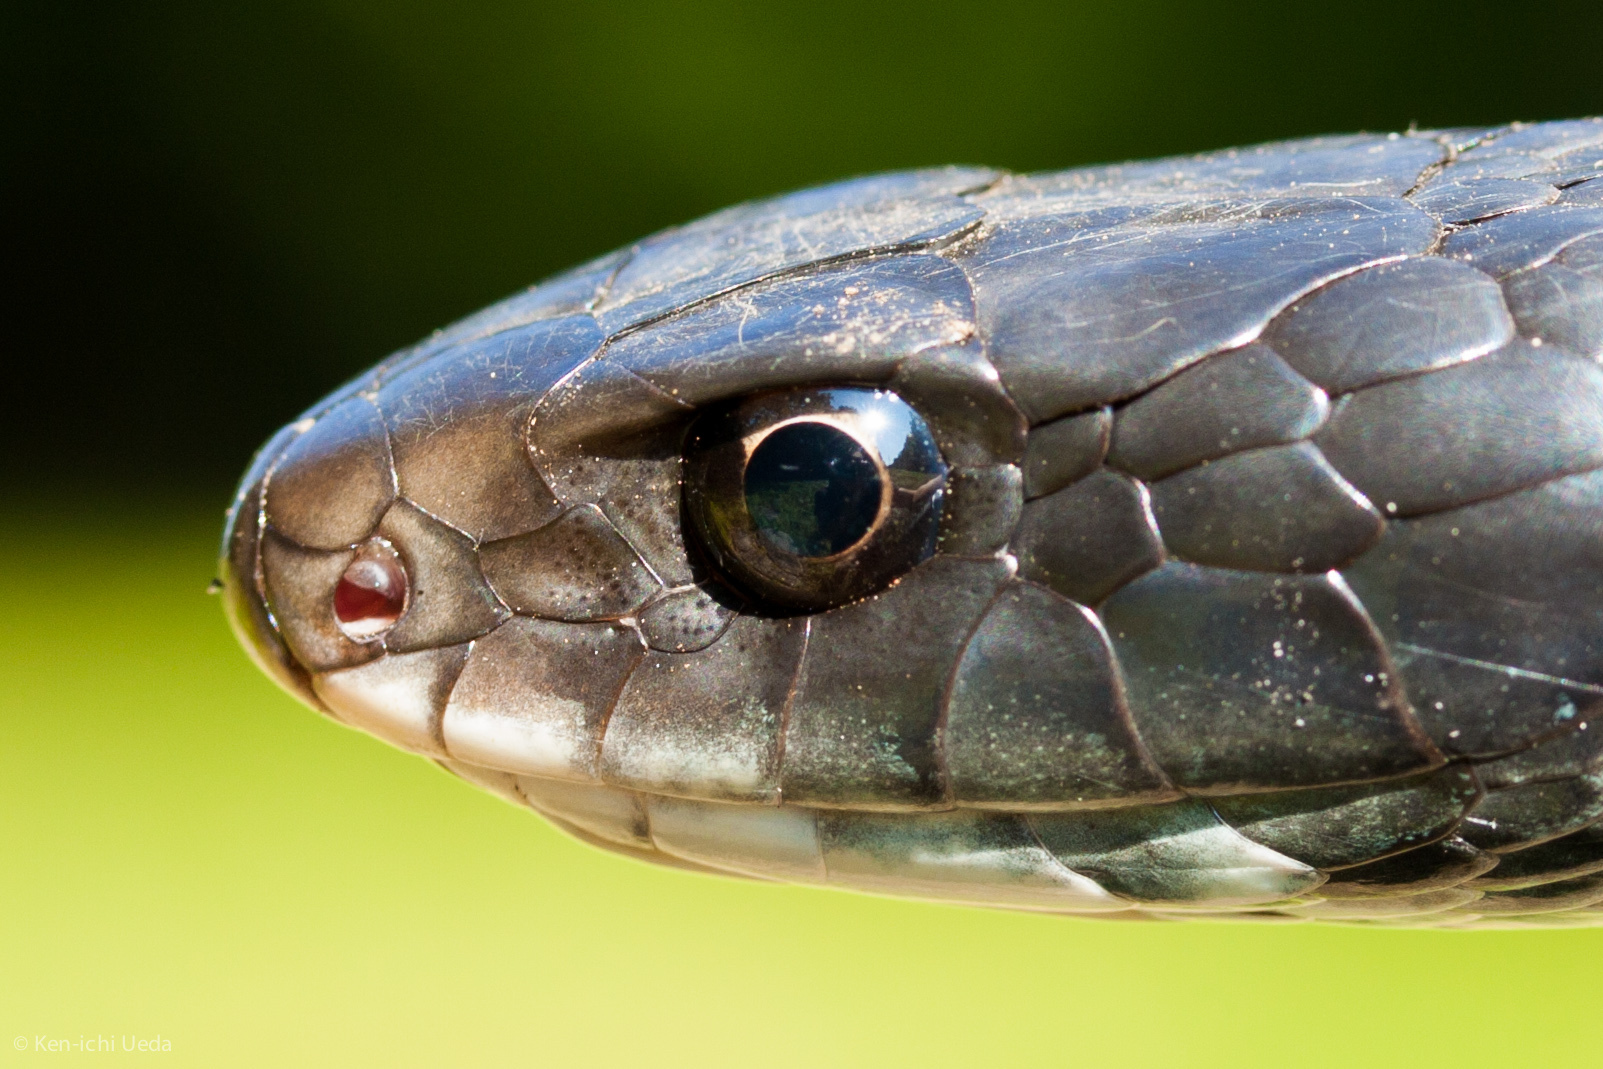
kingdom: Animalia
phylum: Chordata
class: Squamata
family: Colubridae
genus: Coluber
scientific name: Coluber constrictor
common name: Eastern racer
